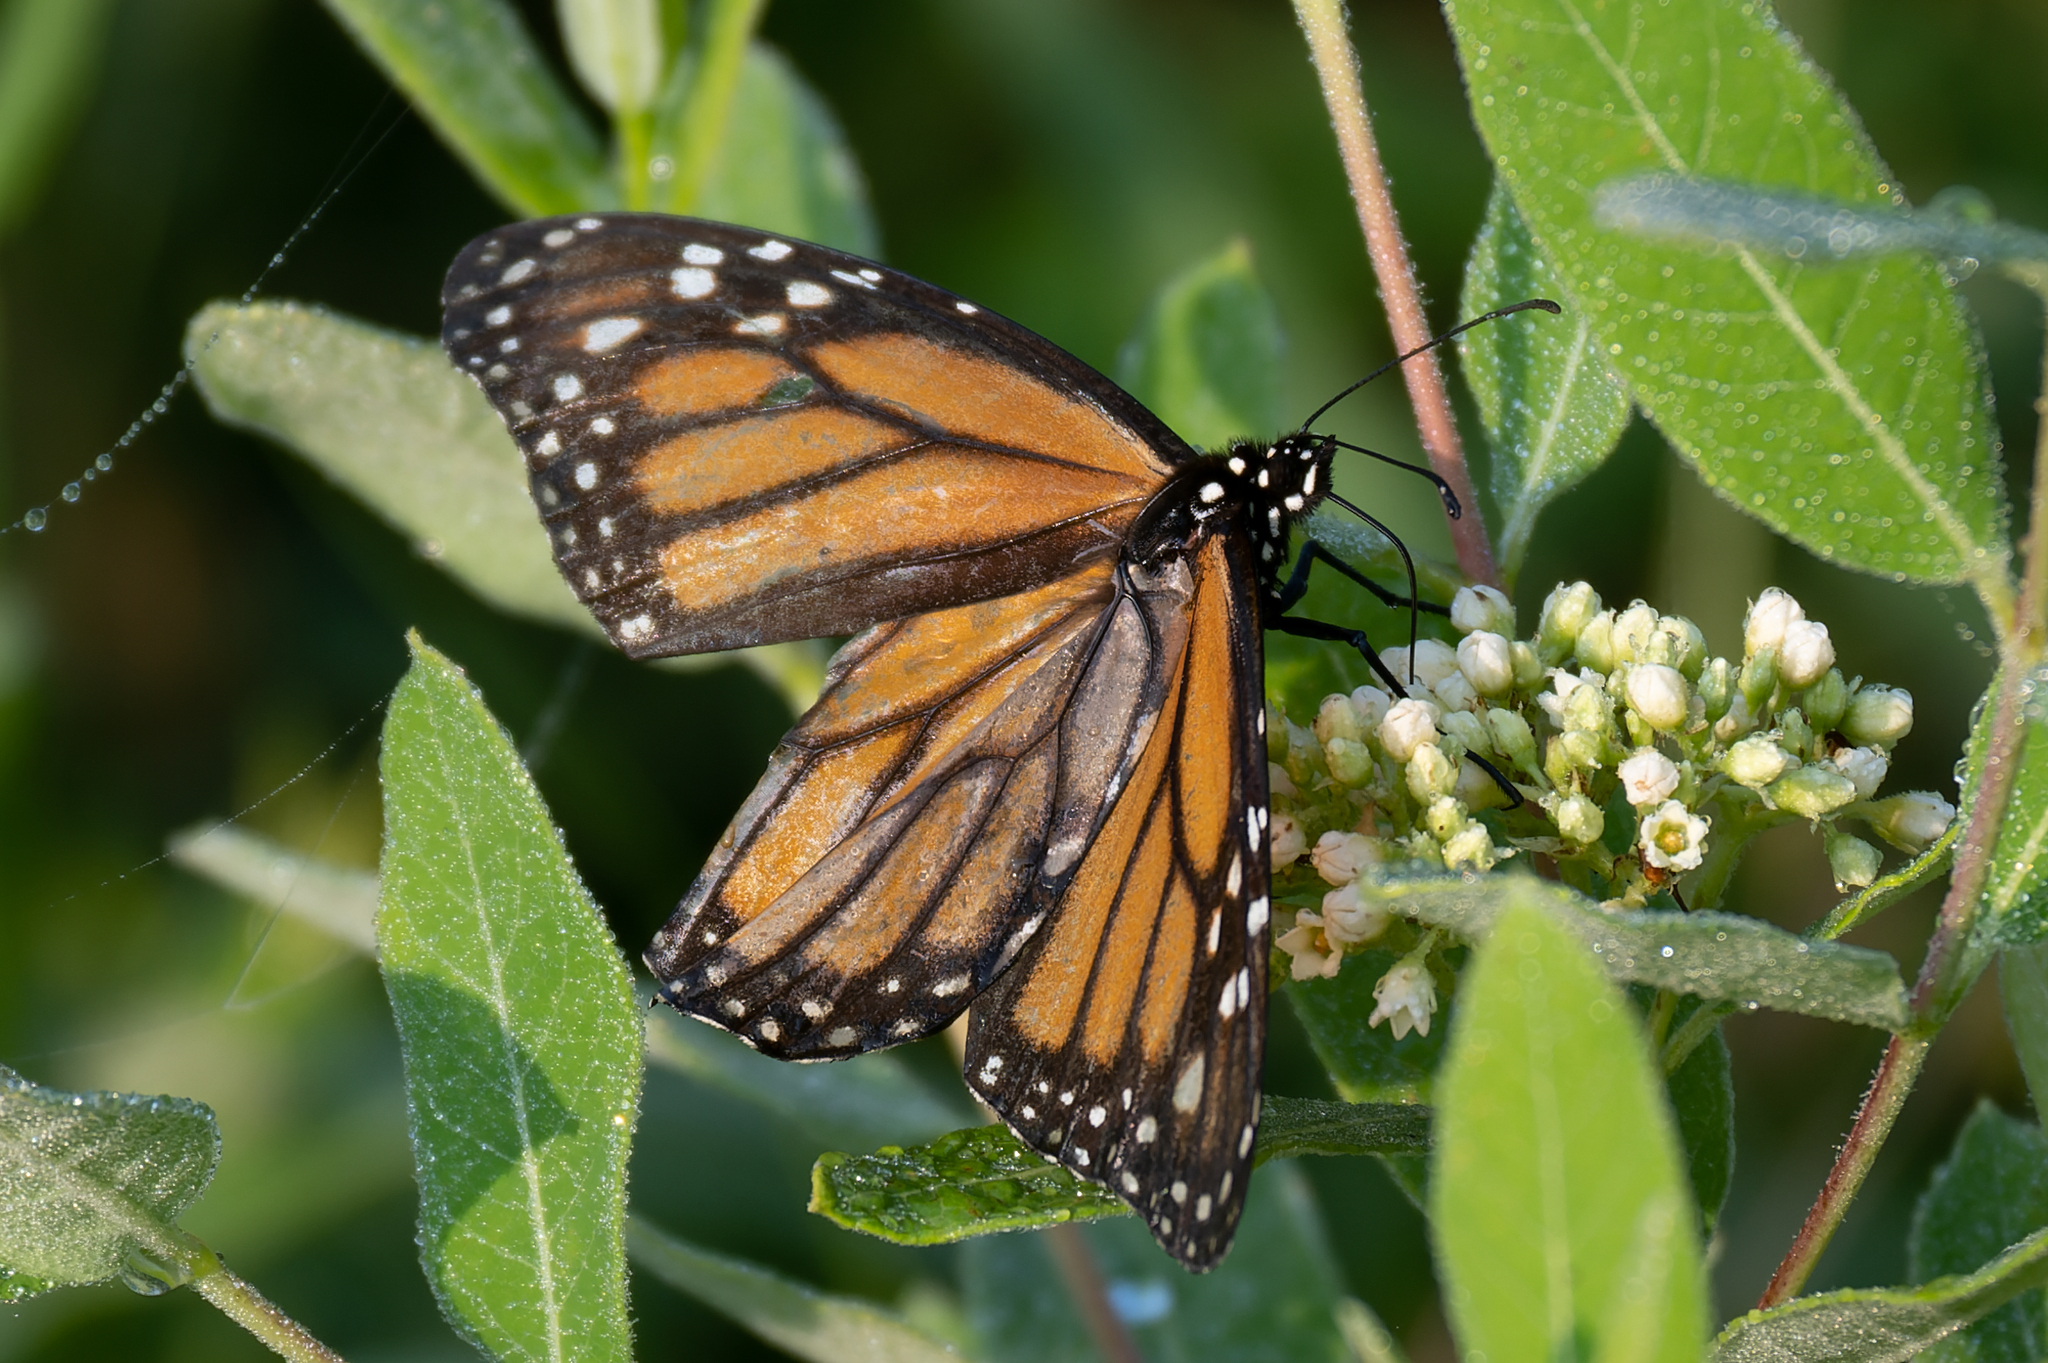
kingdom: Animalia
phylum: Arthropoda
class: Insecta
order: Lepidoptera
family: Nymphalidae
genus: Danaus
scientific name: Danaus plexippus
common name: Monarch
